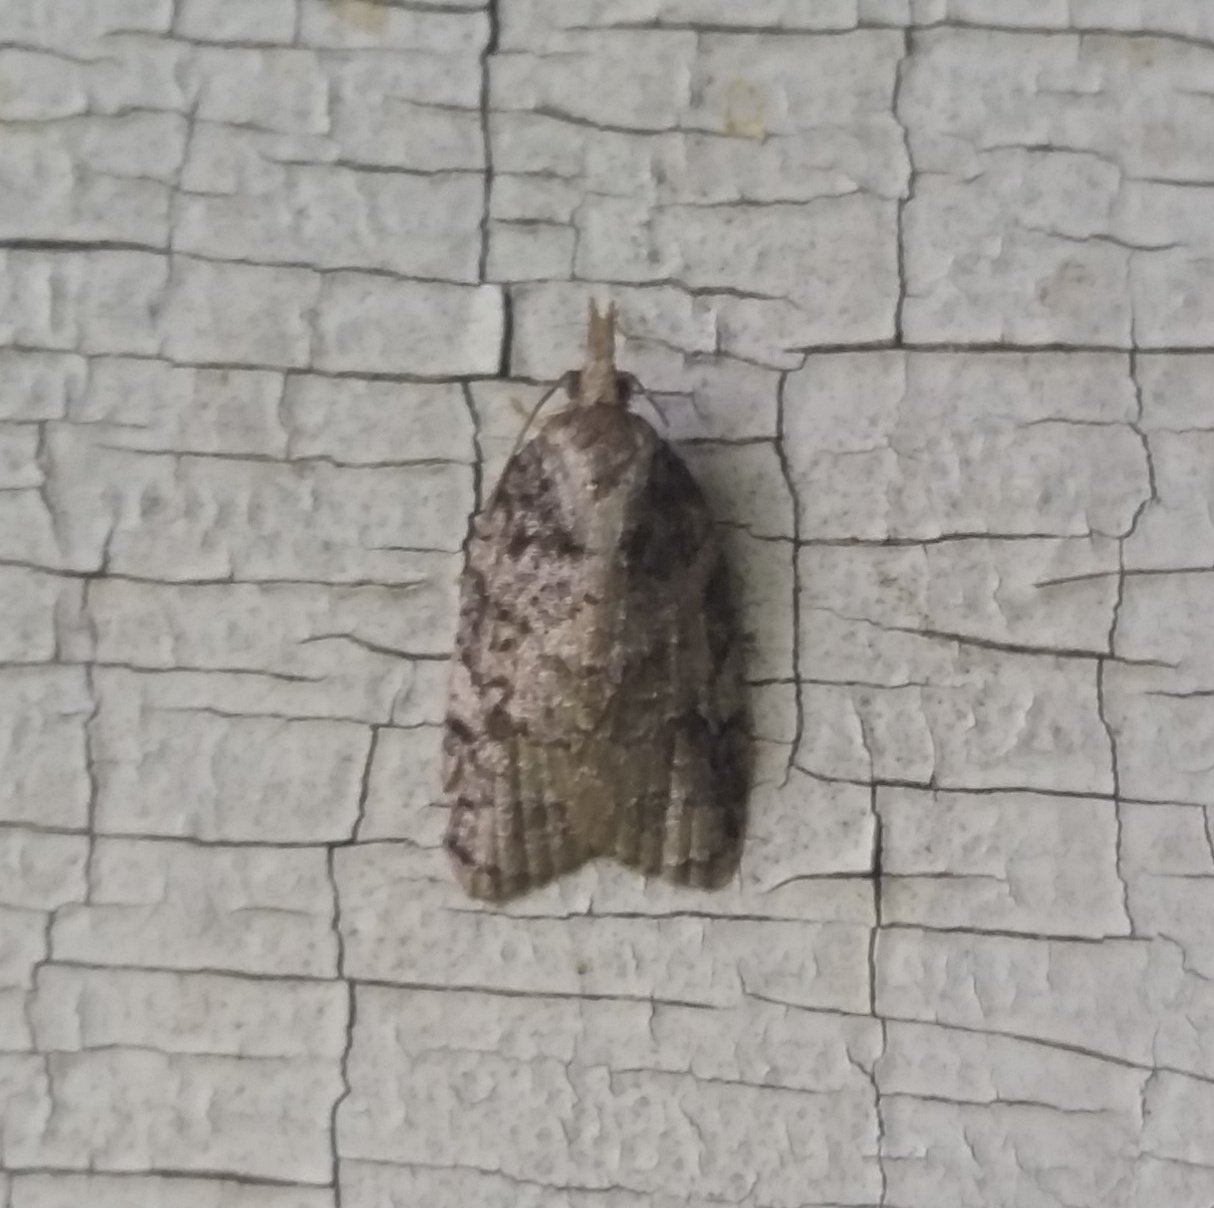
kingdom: Animalia
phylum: Arthropoda
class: Insecta
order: Lepidoptera
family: Tortricidae
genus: Platynota
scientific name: Platynota idaeusalis
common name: Tufted apple bud moth
